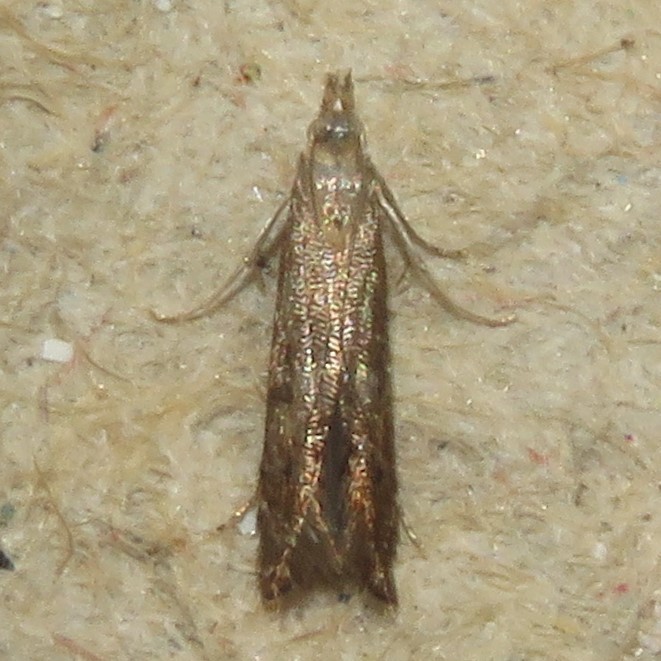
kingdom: Animalia
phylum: Arthropoda
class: Insecta
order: Lepidoptera
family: Gelechiidae
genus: Isophrictis
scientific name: Isophrictis anteliella
